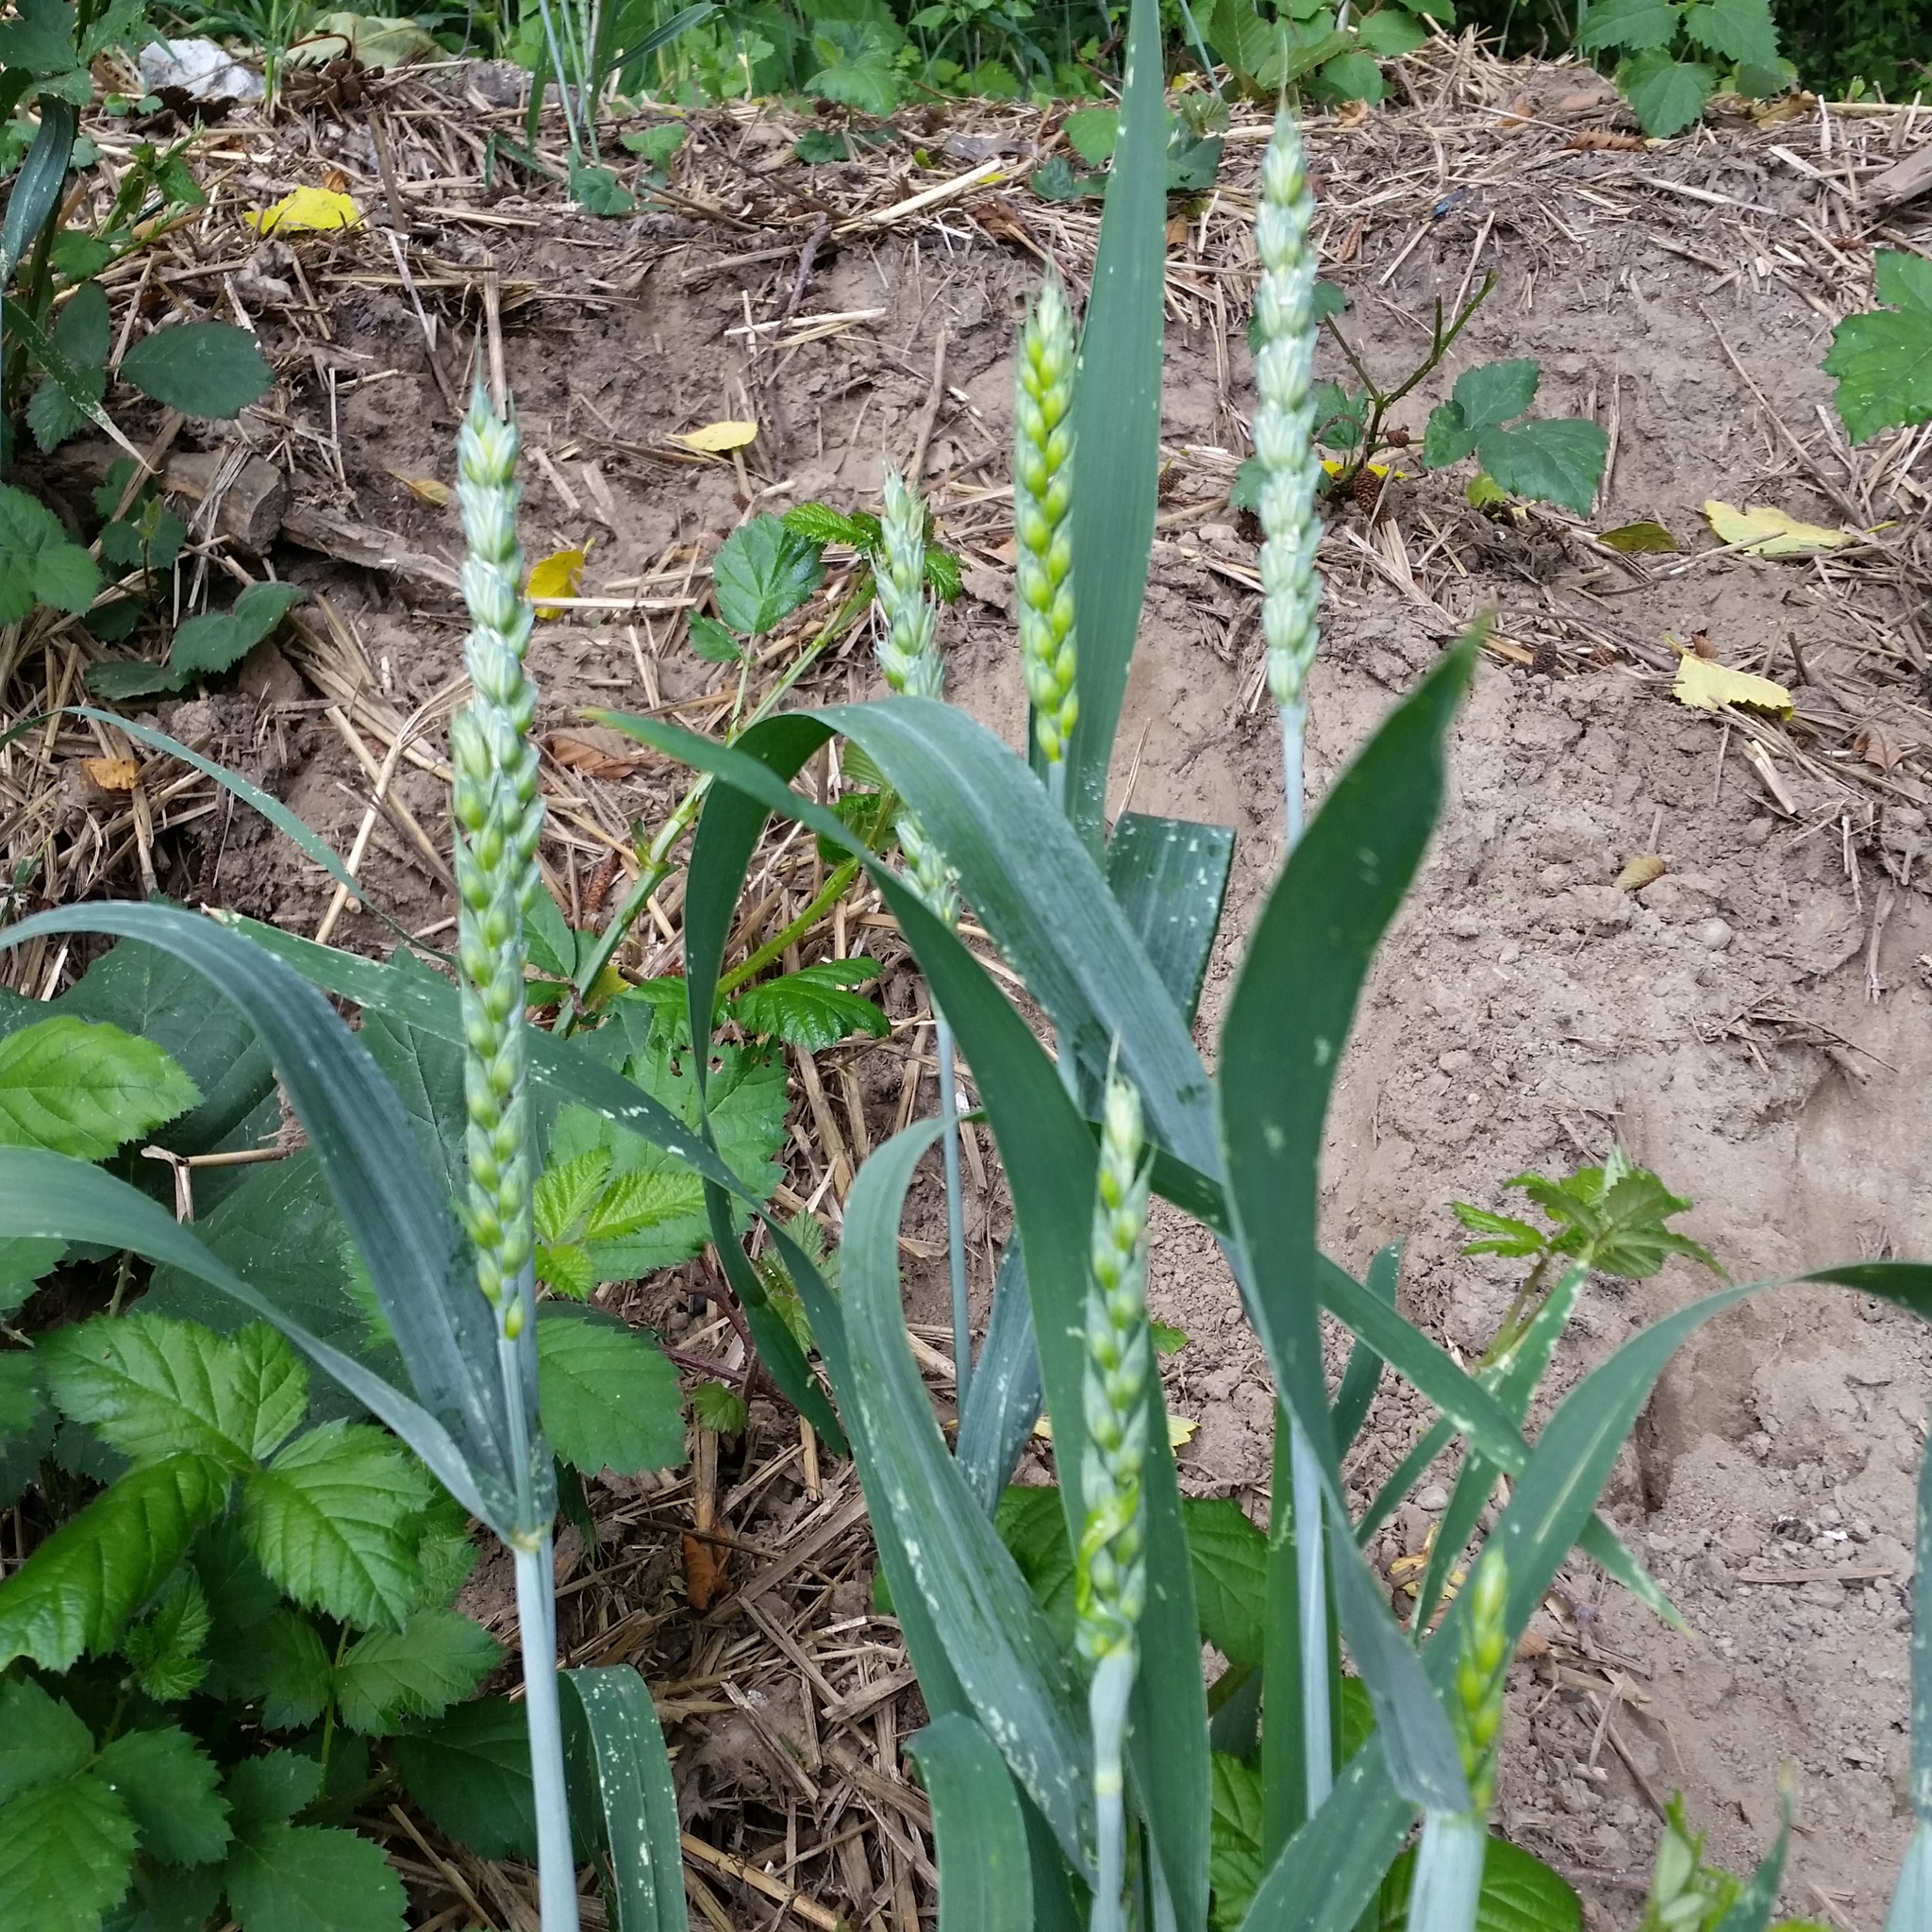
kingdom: Plantae
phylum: Tracheophyta
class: Liliopsida
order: Poales
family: Poaceae
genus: Triticum
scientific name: Triticum aestivum
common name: Common wheat
